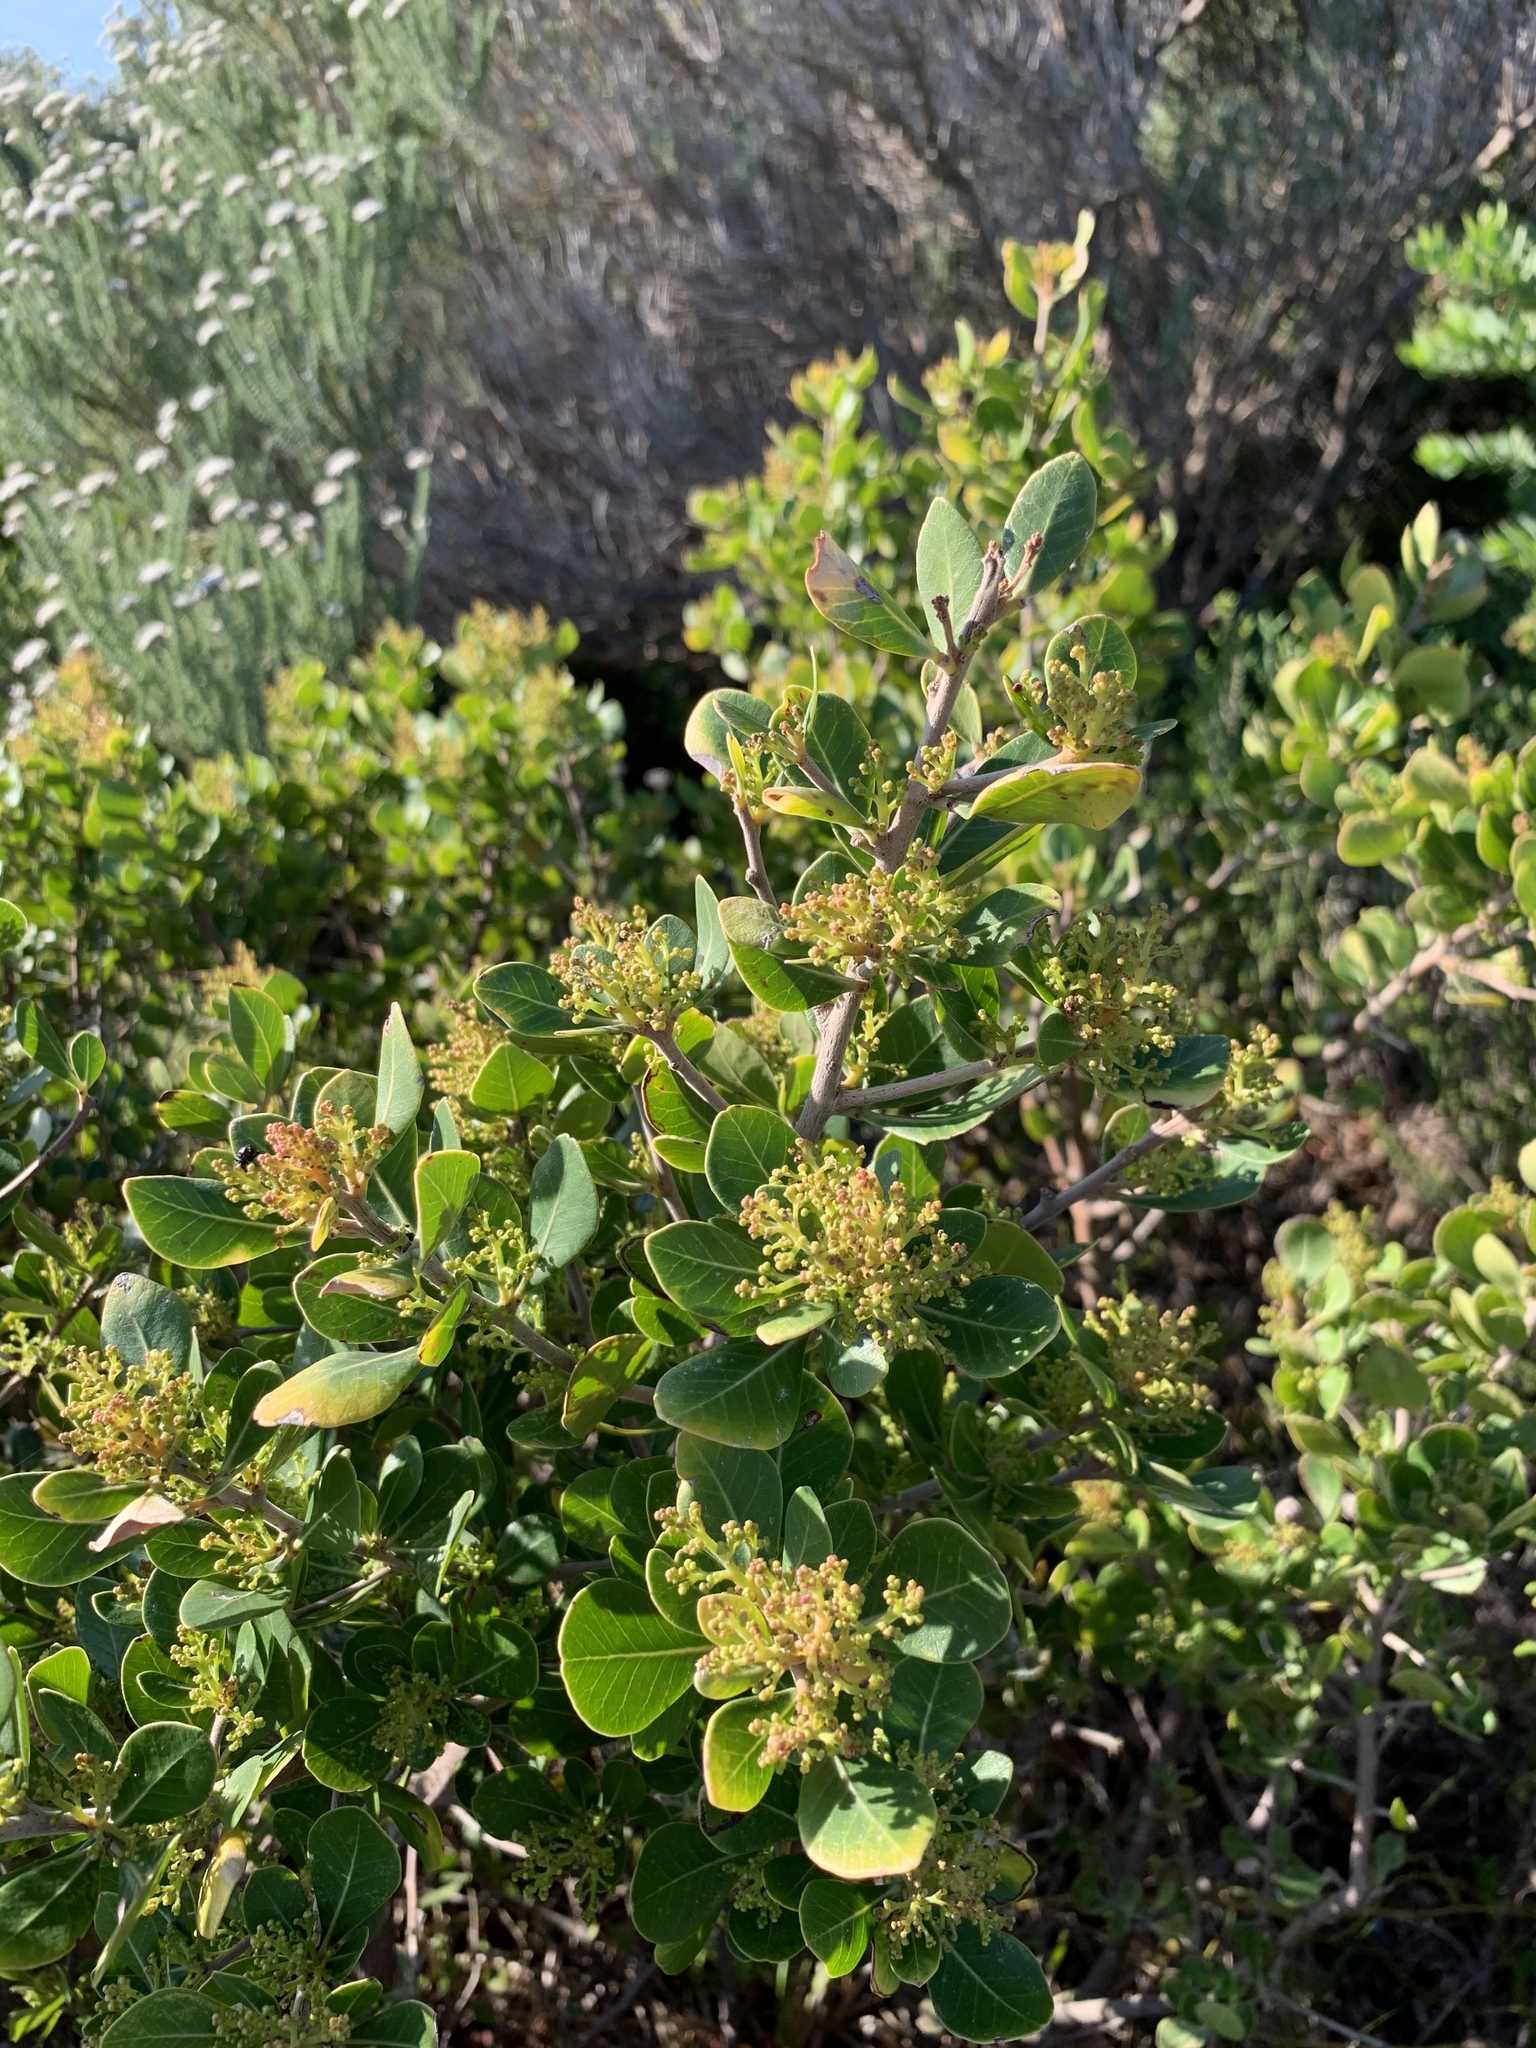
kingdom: Plantae
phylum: Tracheophyta
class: Magnoliopsida
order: Sapindales
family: Anacardiaceae
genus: Searsia
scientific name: Searsia lucida
